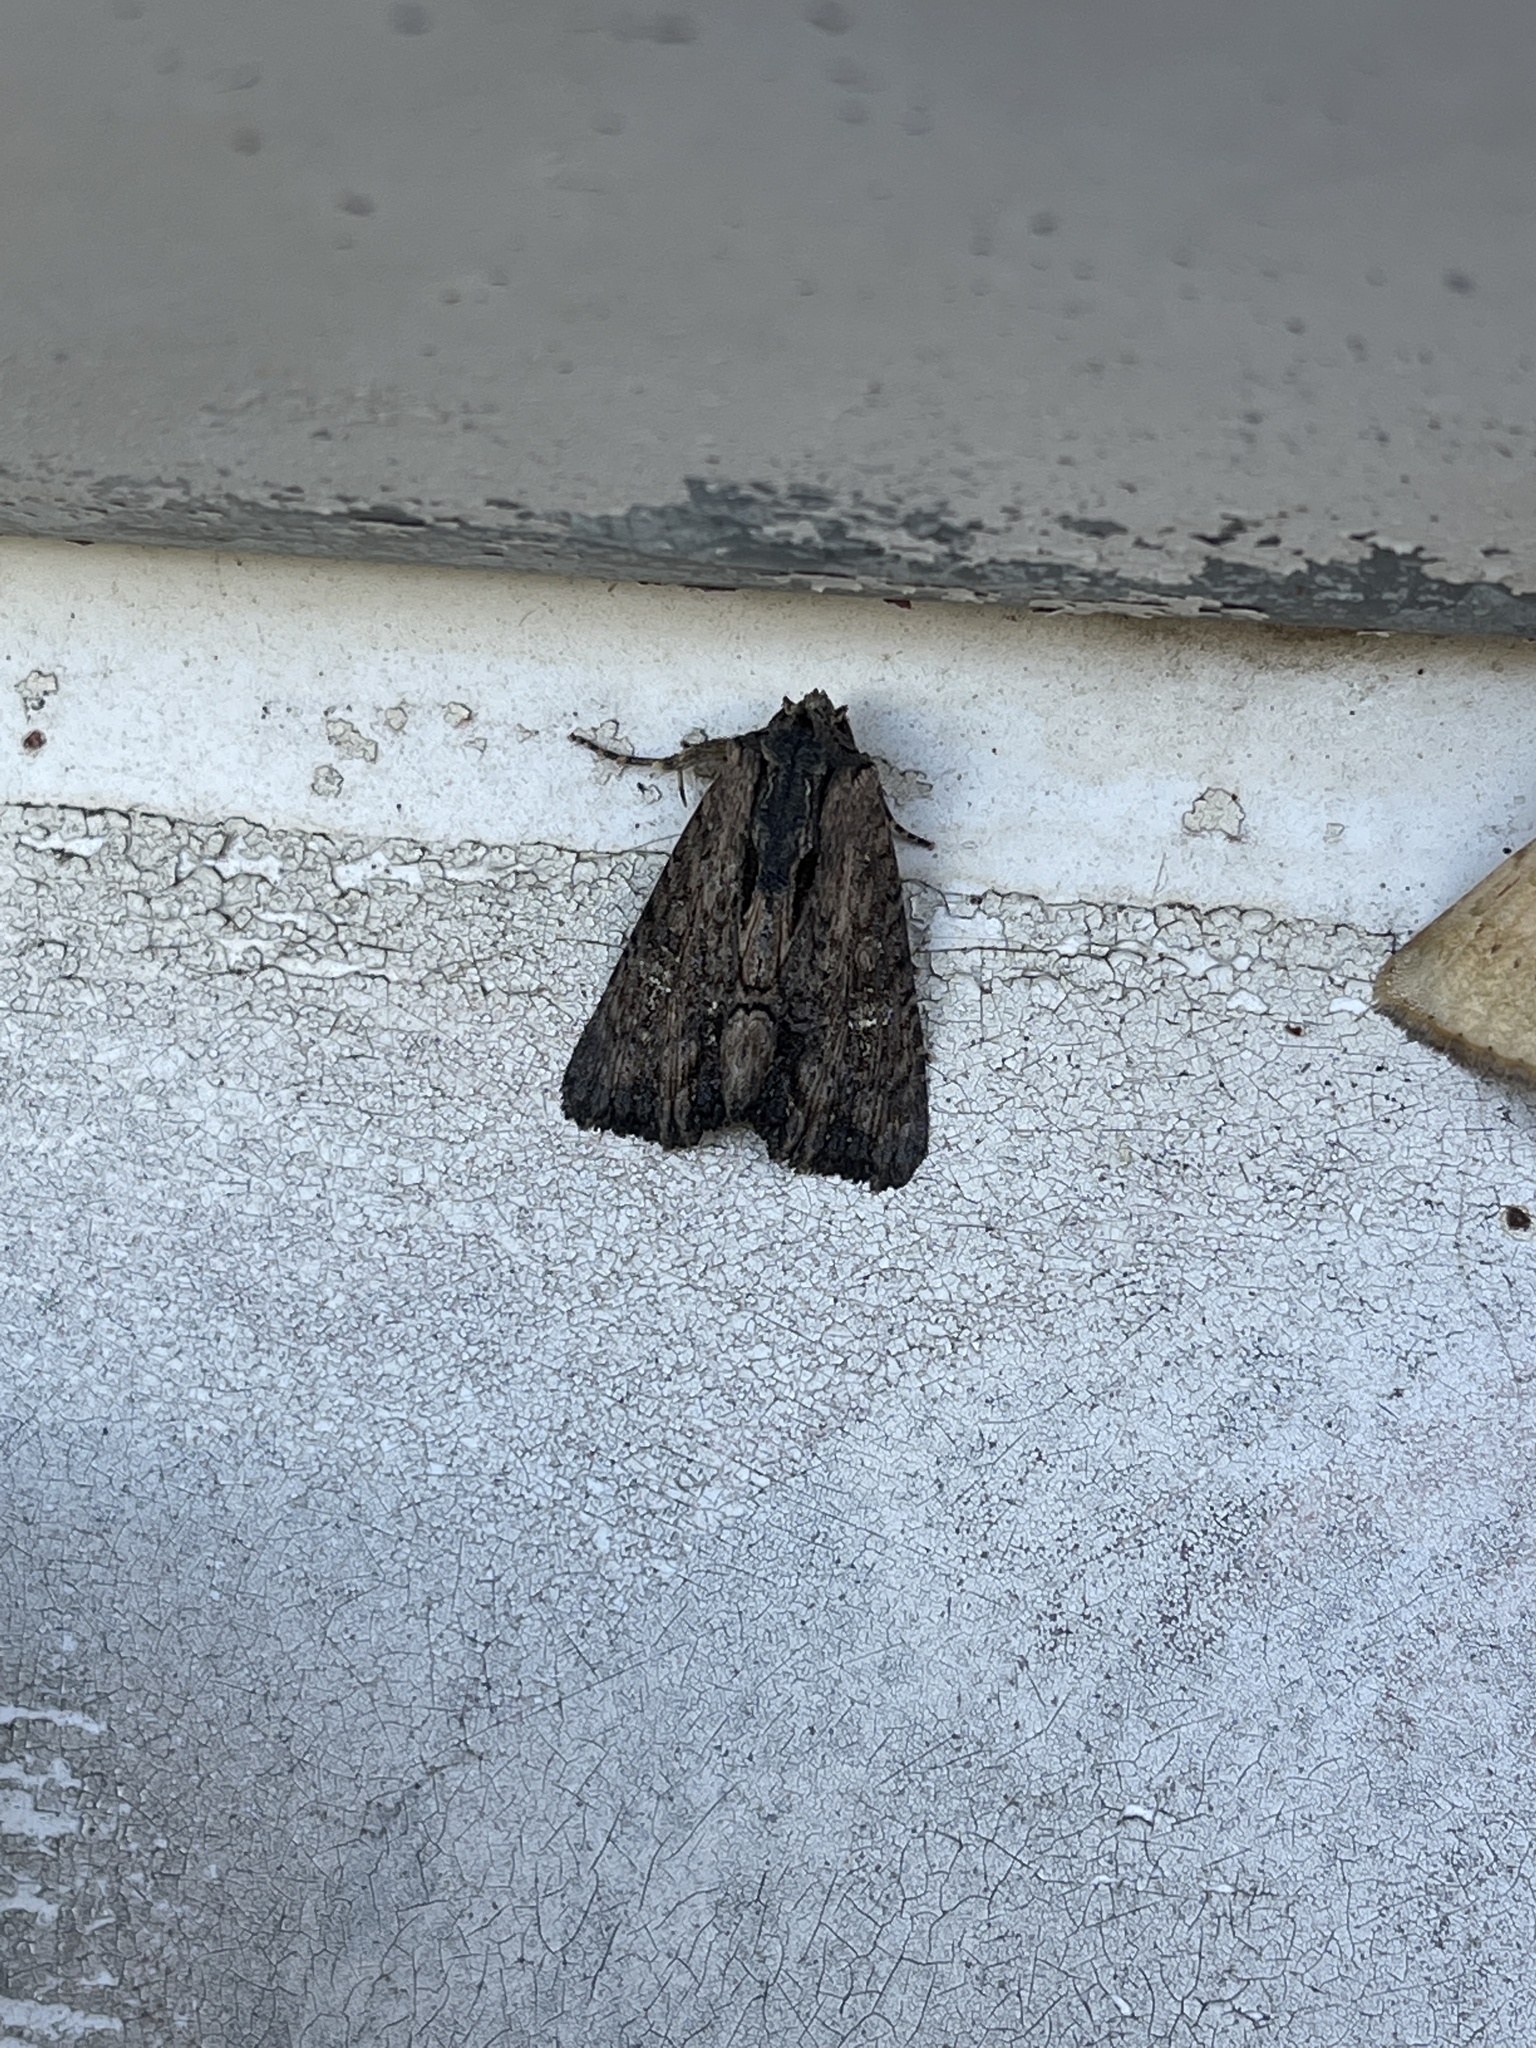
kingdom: Animalia
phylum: Arthropoda
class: Insecta
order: Lepidoptera
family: Noctuidae
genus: Dypterygia
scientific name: Dypterygia patina
